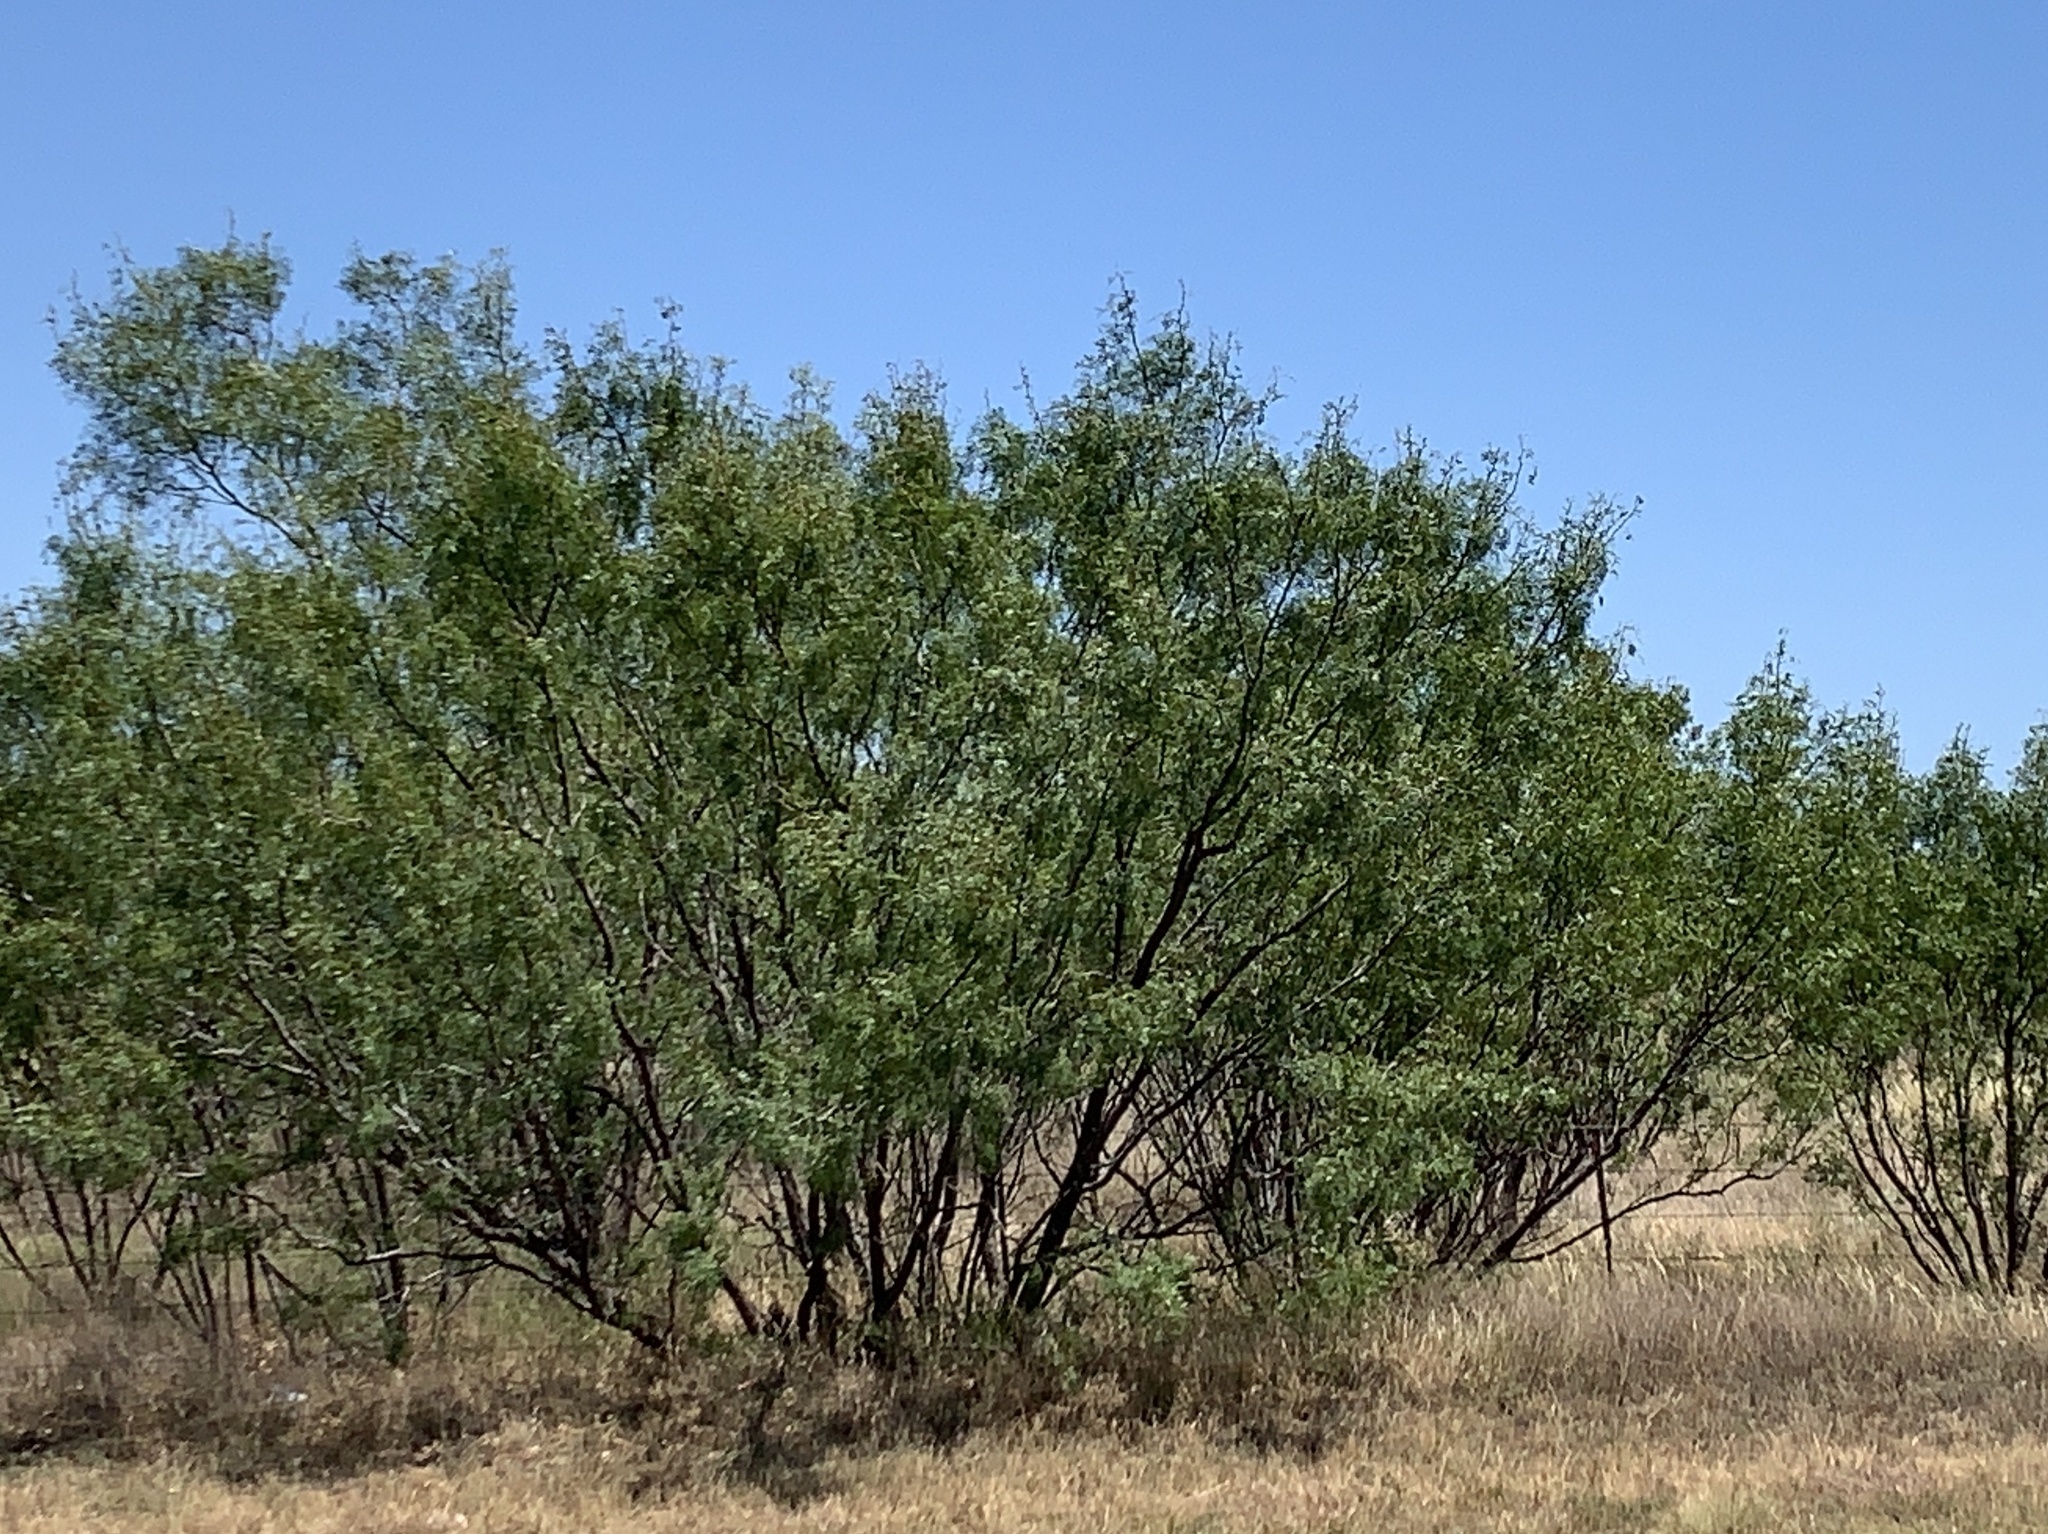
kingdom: Plantae
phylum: Tracheophyta
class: Magnoliopsida
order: Fabales
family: Fabaceae
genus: Prosopis
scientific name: Prosopis glandulosa
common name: Honey mesquite
